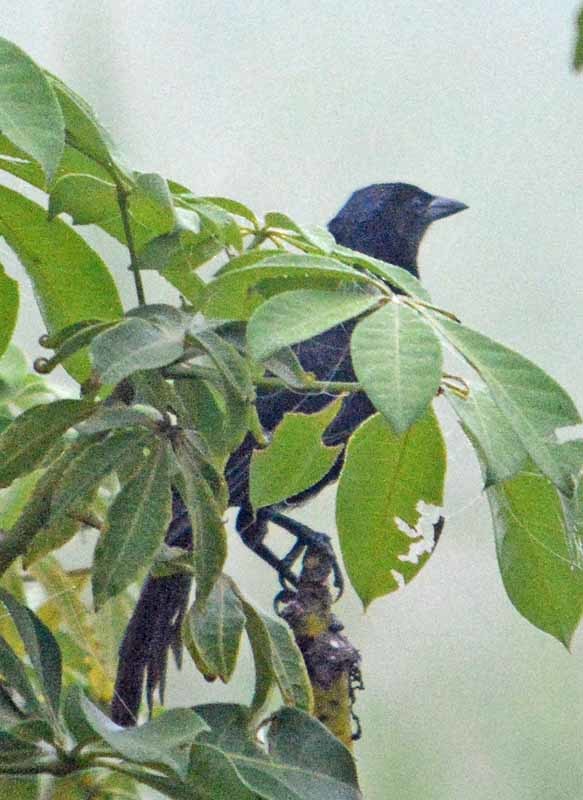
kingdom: Animalia
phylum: Chordata
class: Aves
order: Passeriformes
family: Icteridae
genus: Dives
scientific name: Dives dives
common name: Melodious blackbird
